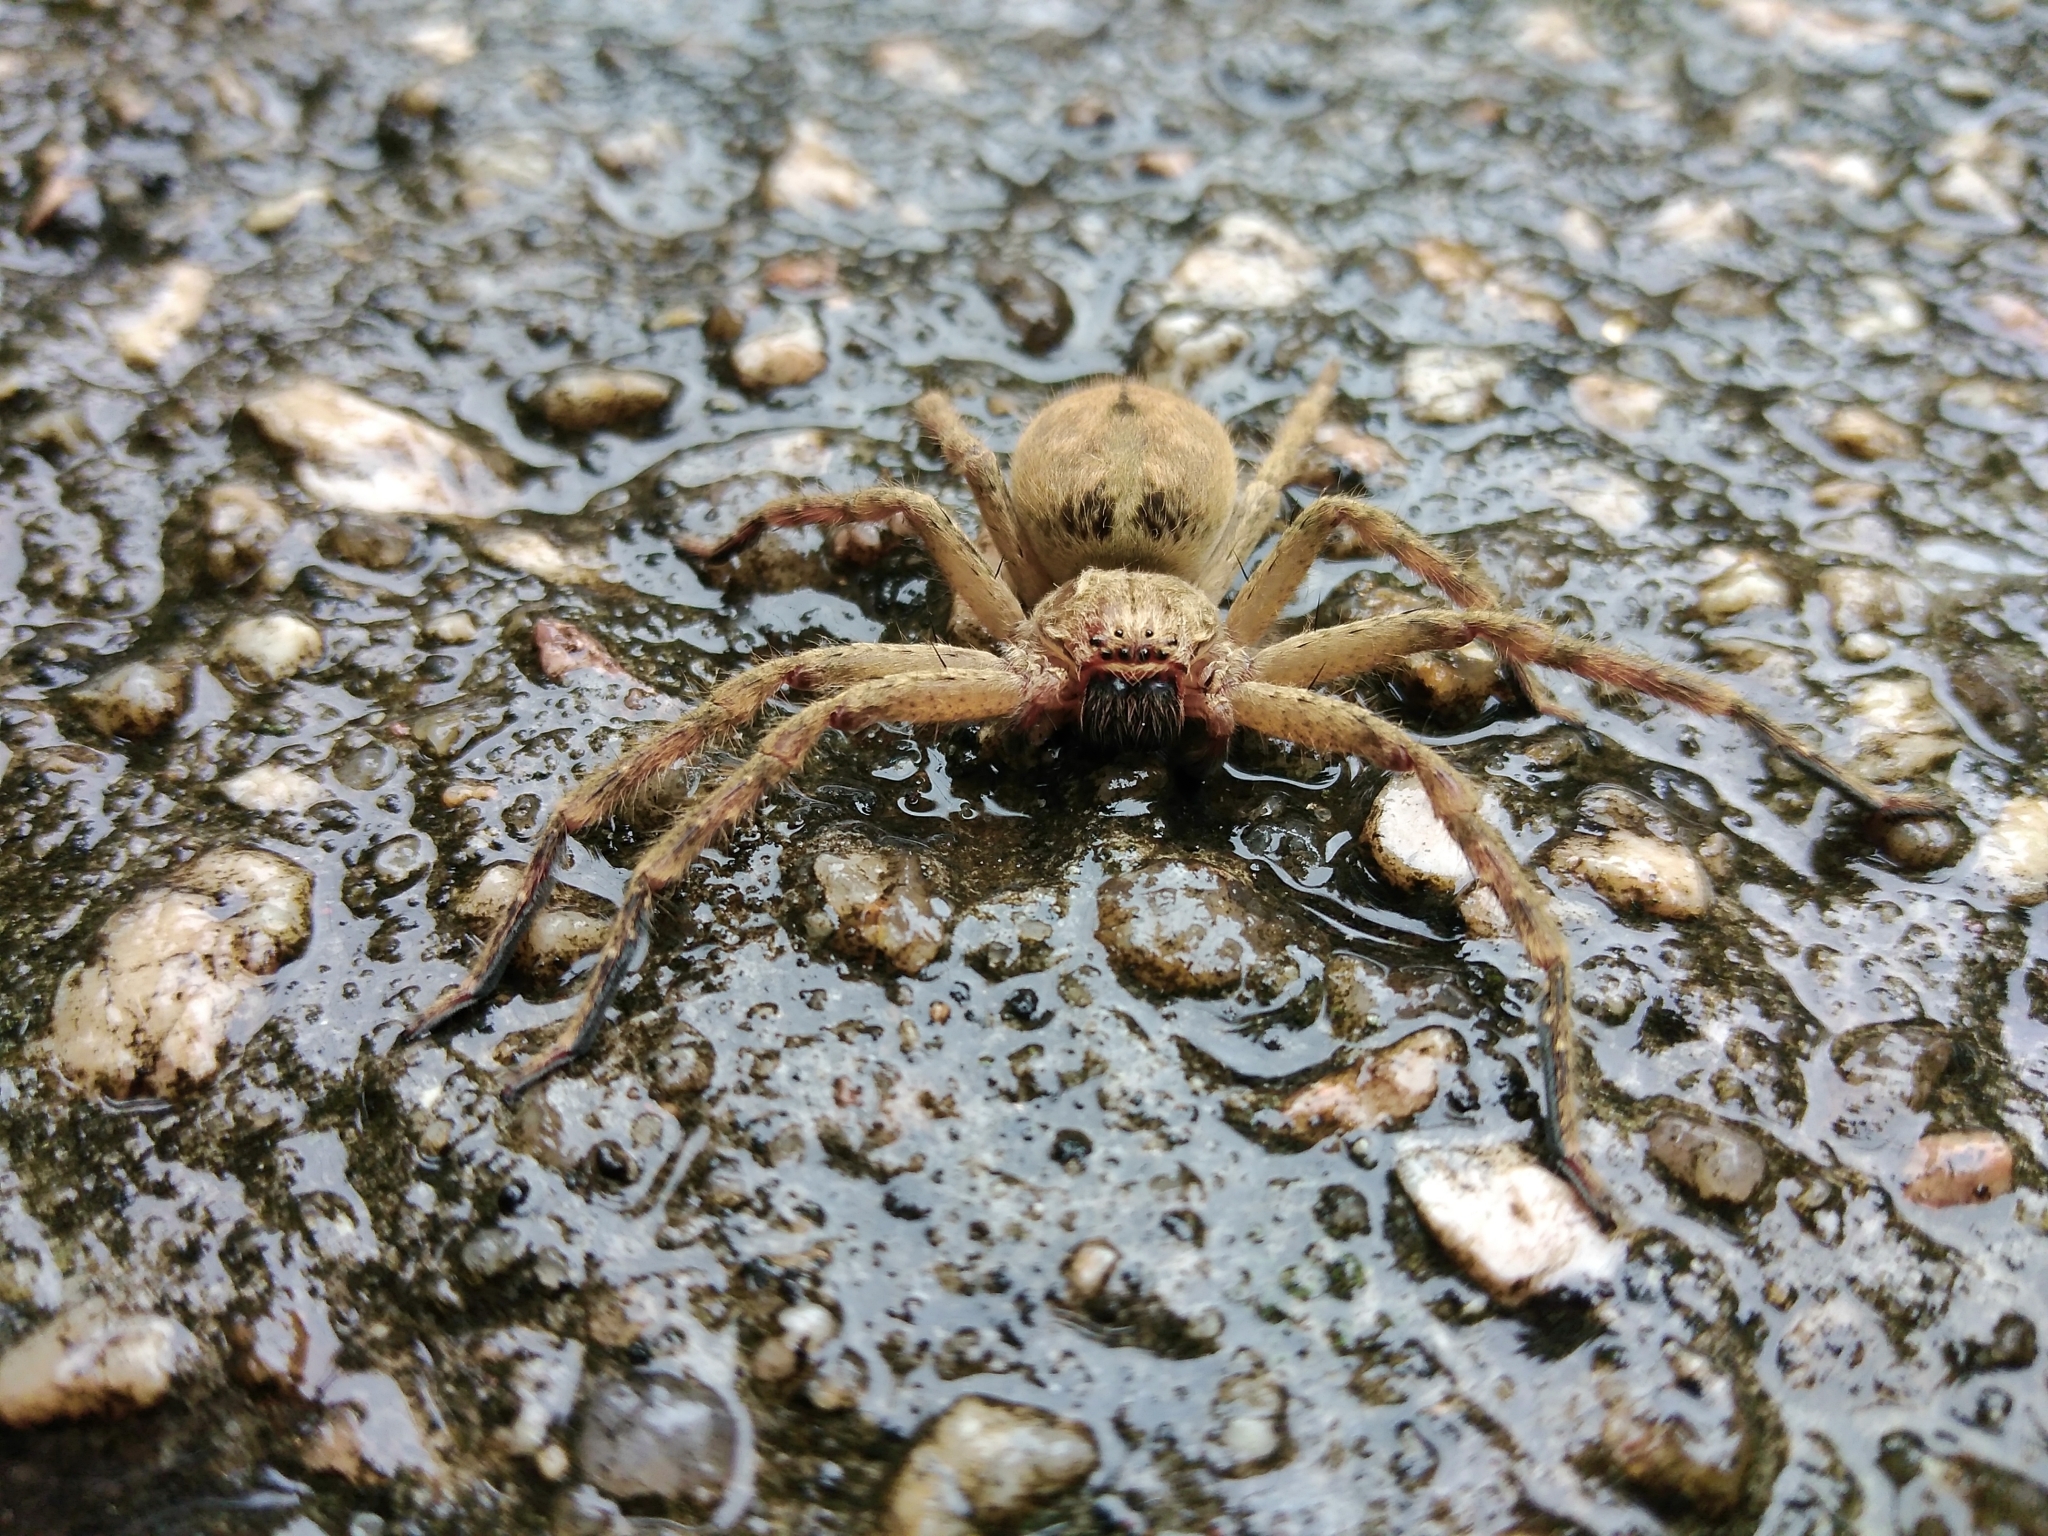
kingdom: Animalia
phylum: Arthropoda
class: Arachnida
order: Araneae
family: Sparassidae
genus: Polybetes
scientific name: Polybetes rapidus
